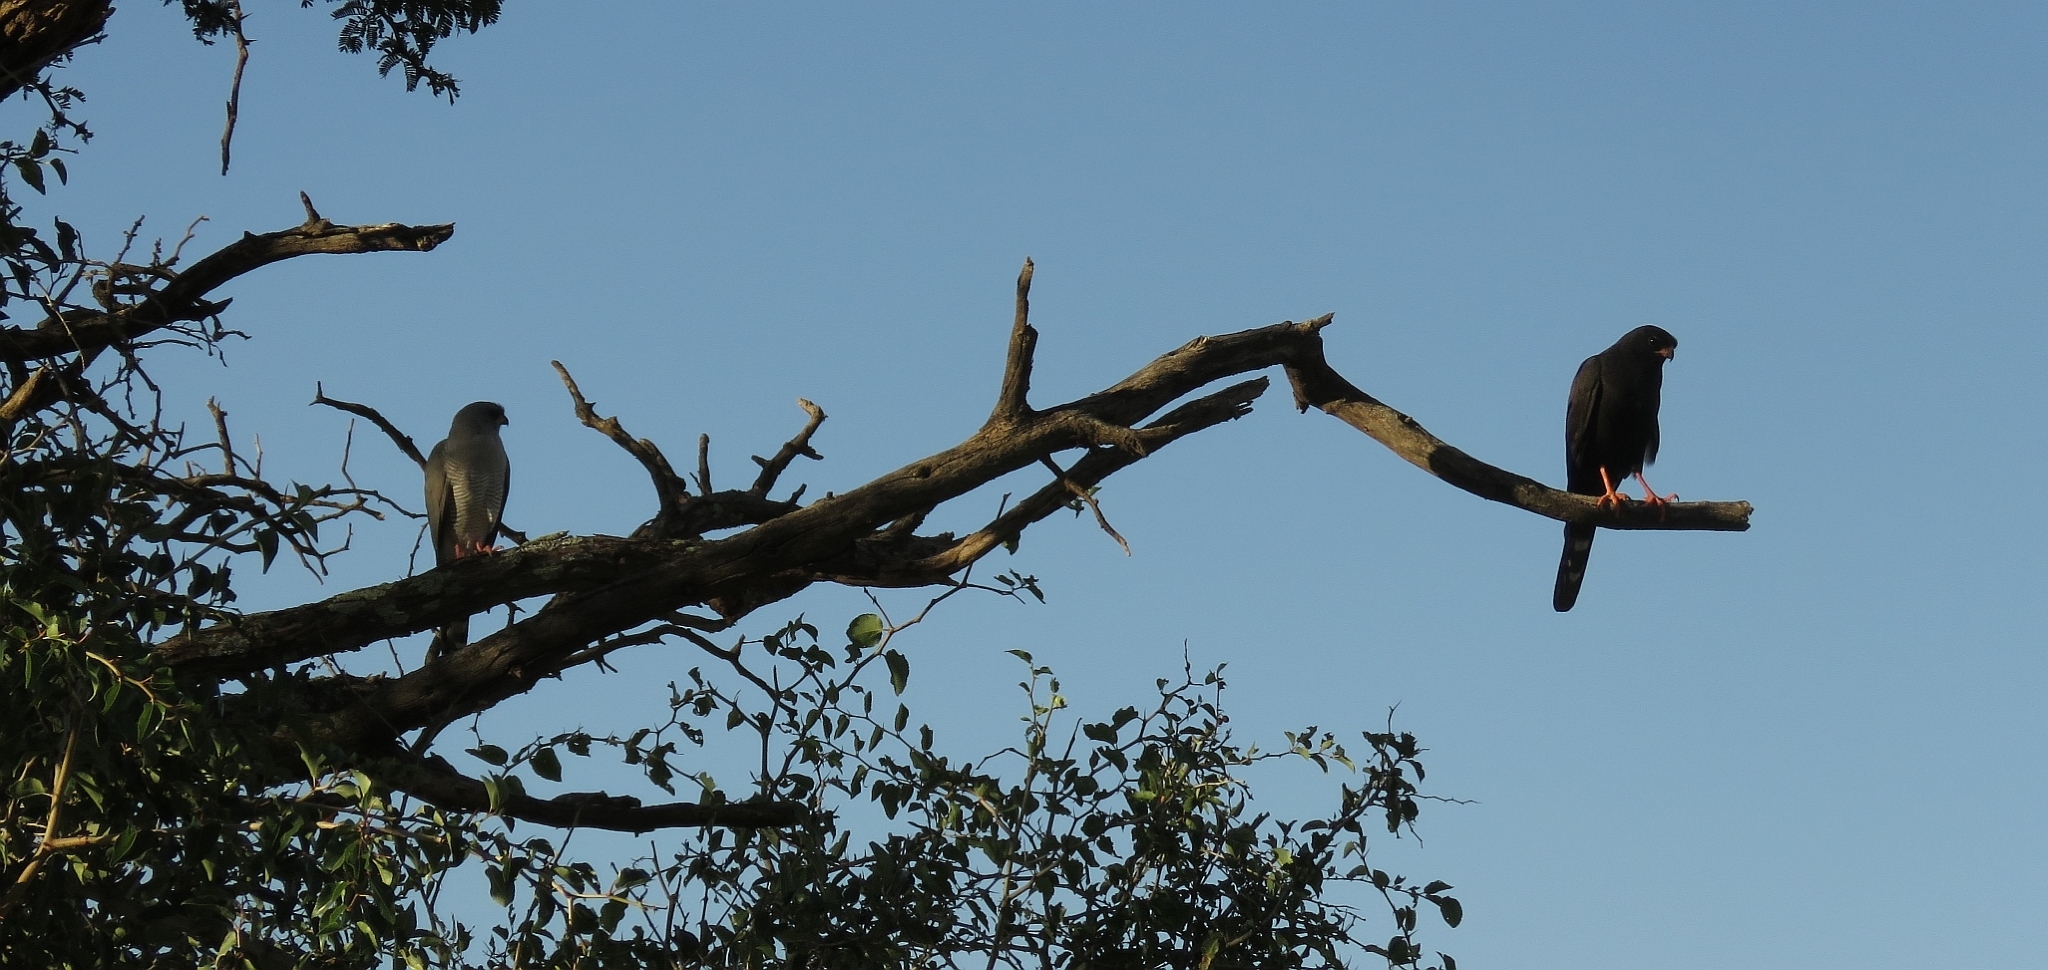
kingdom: Animalia
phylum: Chordata
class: Aves
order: Accipitriformes
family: Accipitridae
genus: Micronisus
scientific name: Micronisus gabar
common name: Gabar goshawk
